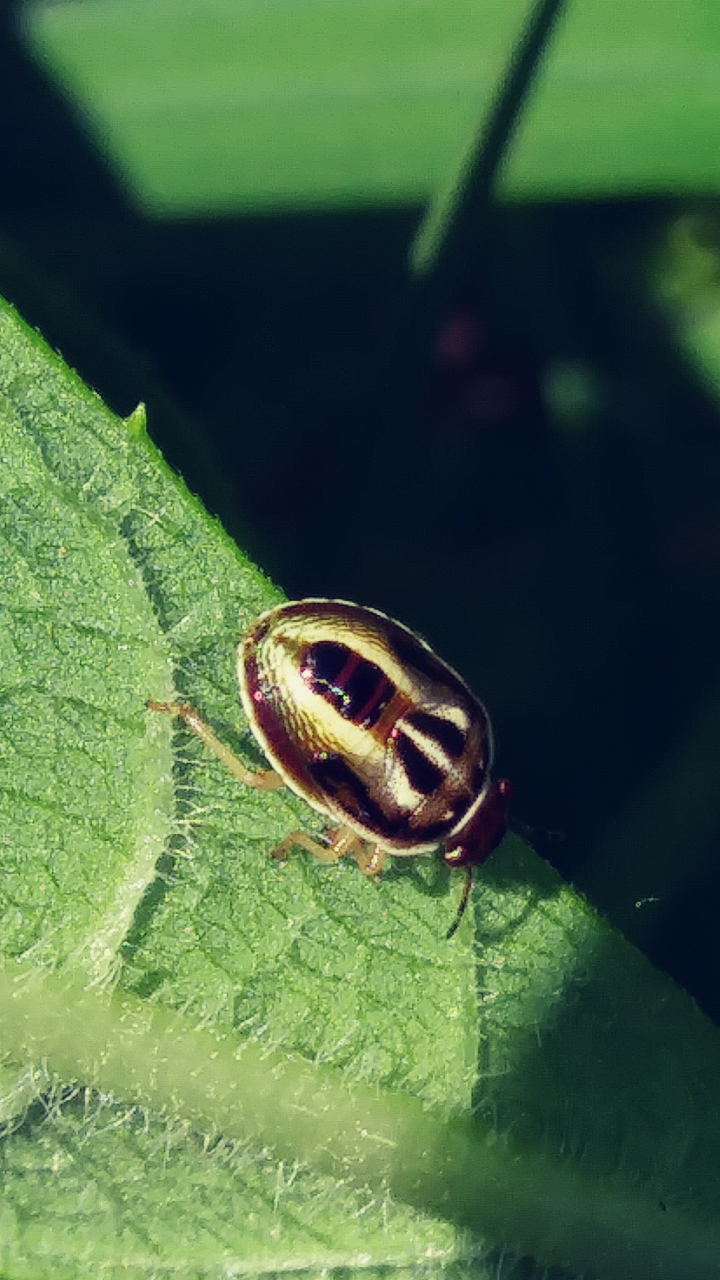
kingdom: Animalia
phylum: Arthropoda
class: Insecta
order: Hemiptera
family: Pentatomidae
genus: Mormidea
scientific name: Mormidea lugens
